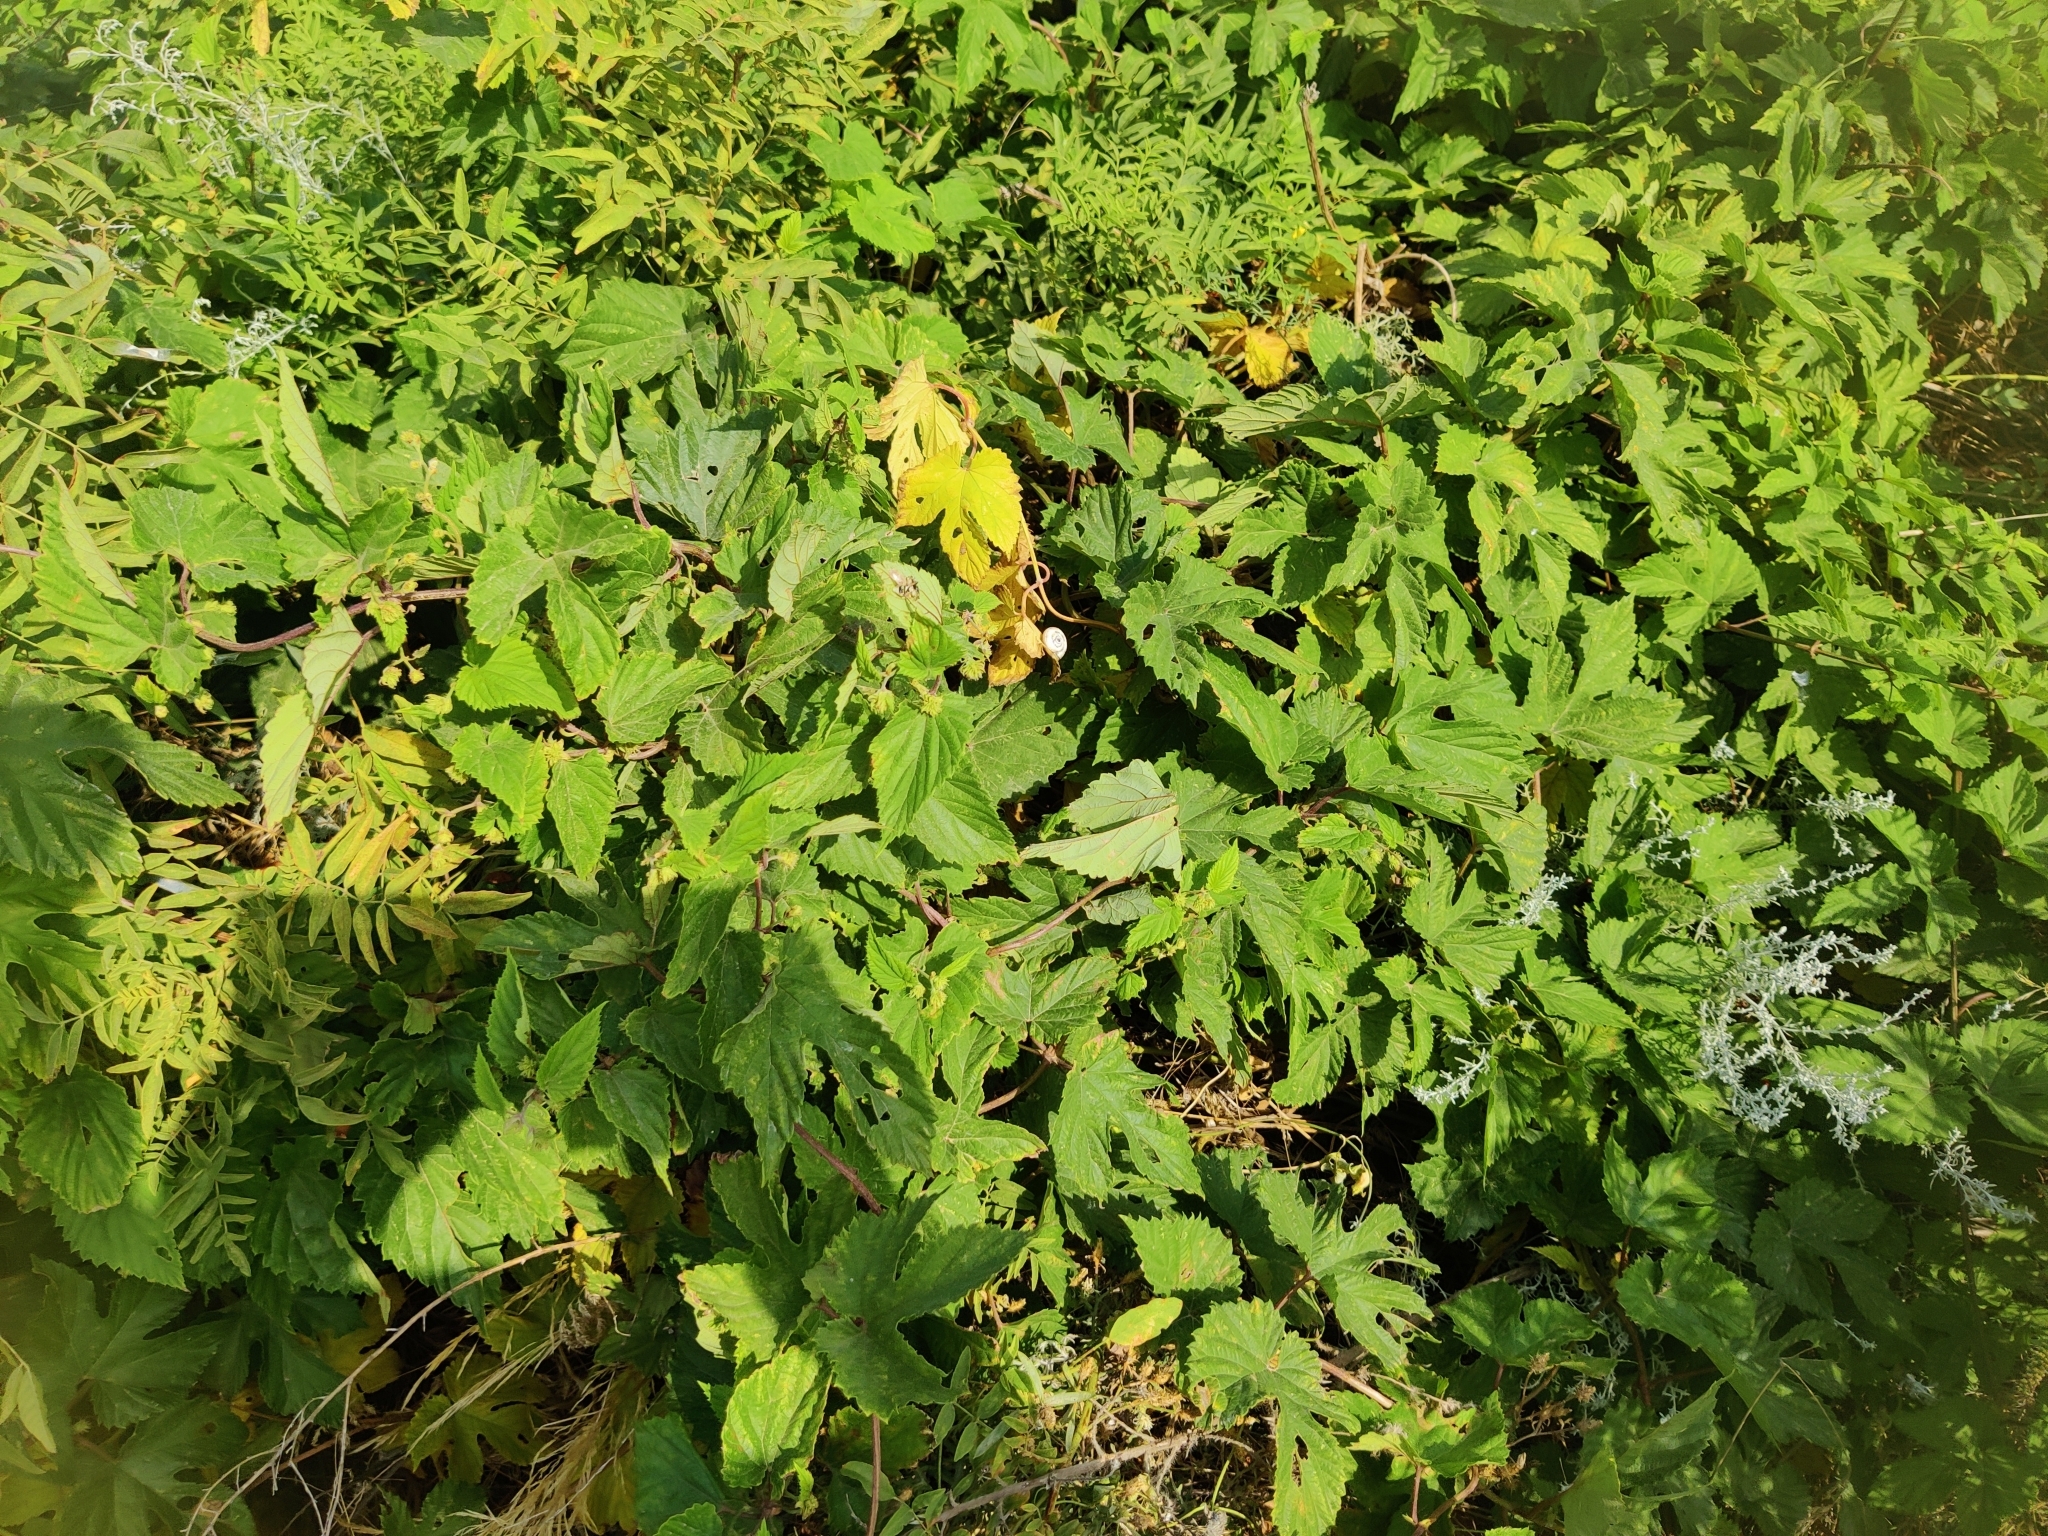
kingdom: Plantae
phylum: Tracheophyta
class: Magnoliopsida
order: Rosales
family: Cannabaceae
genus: Humulus
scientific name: Humulus lupulus
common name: Hop
